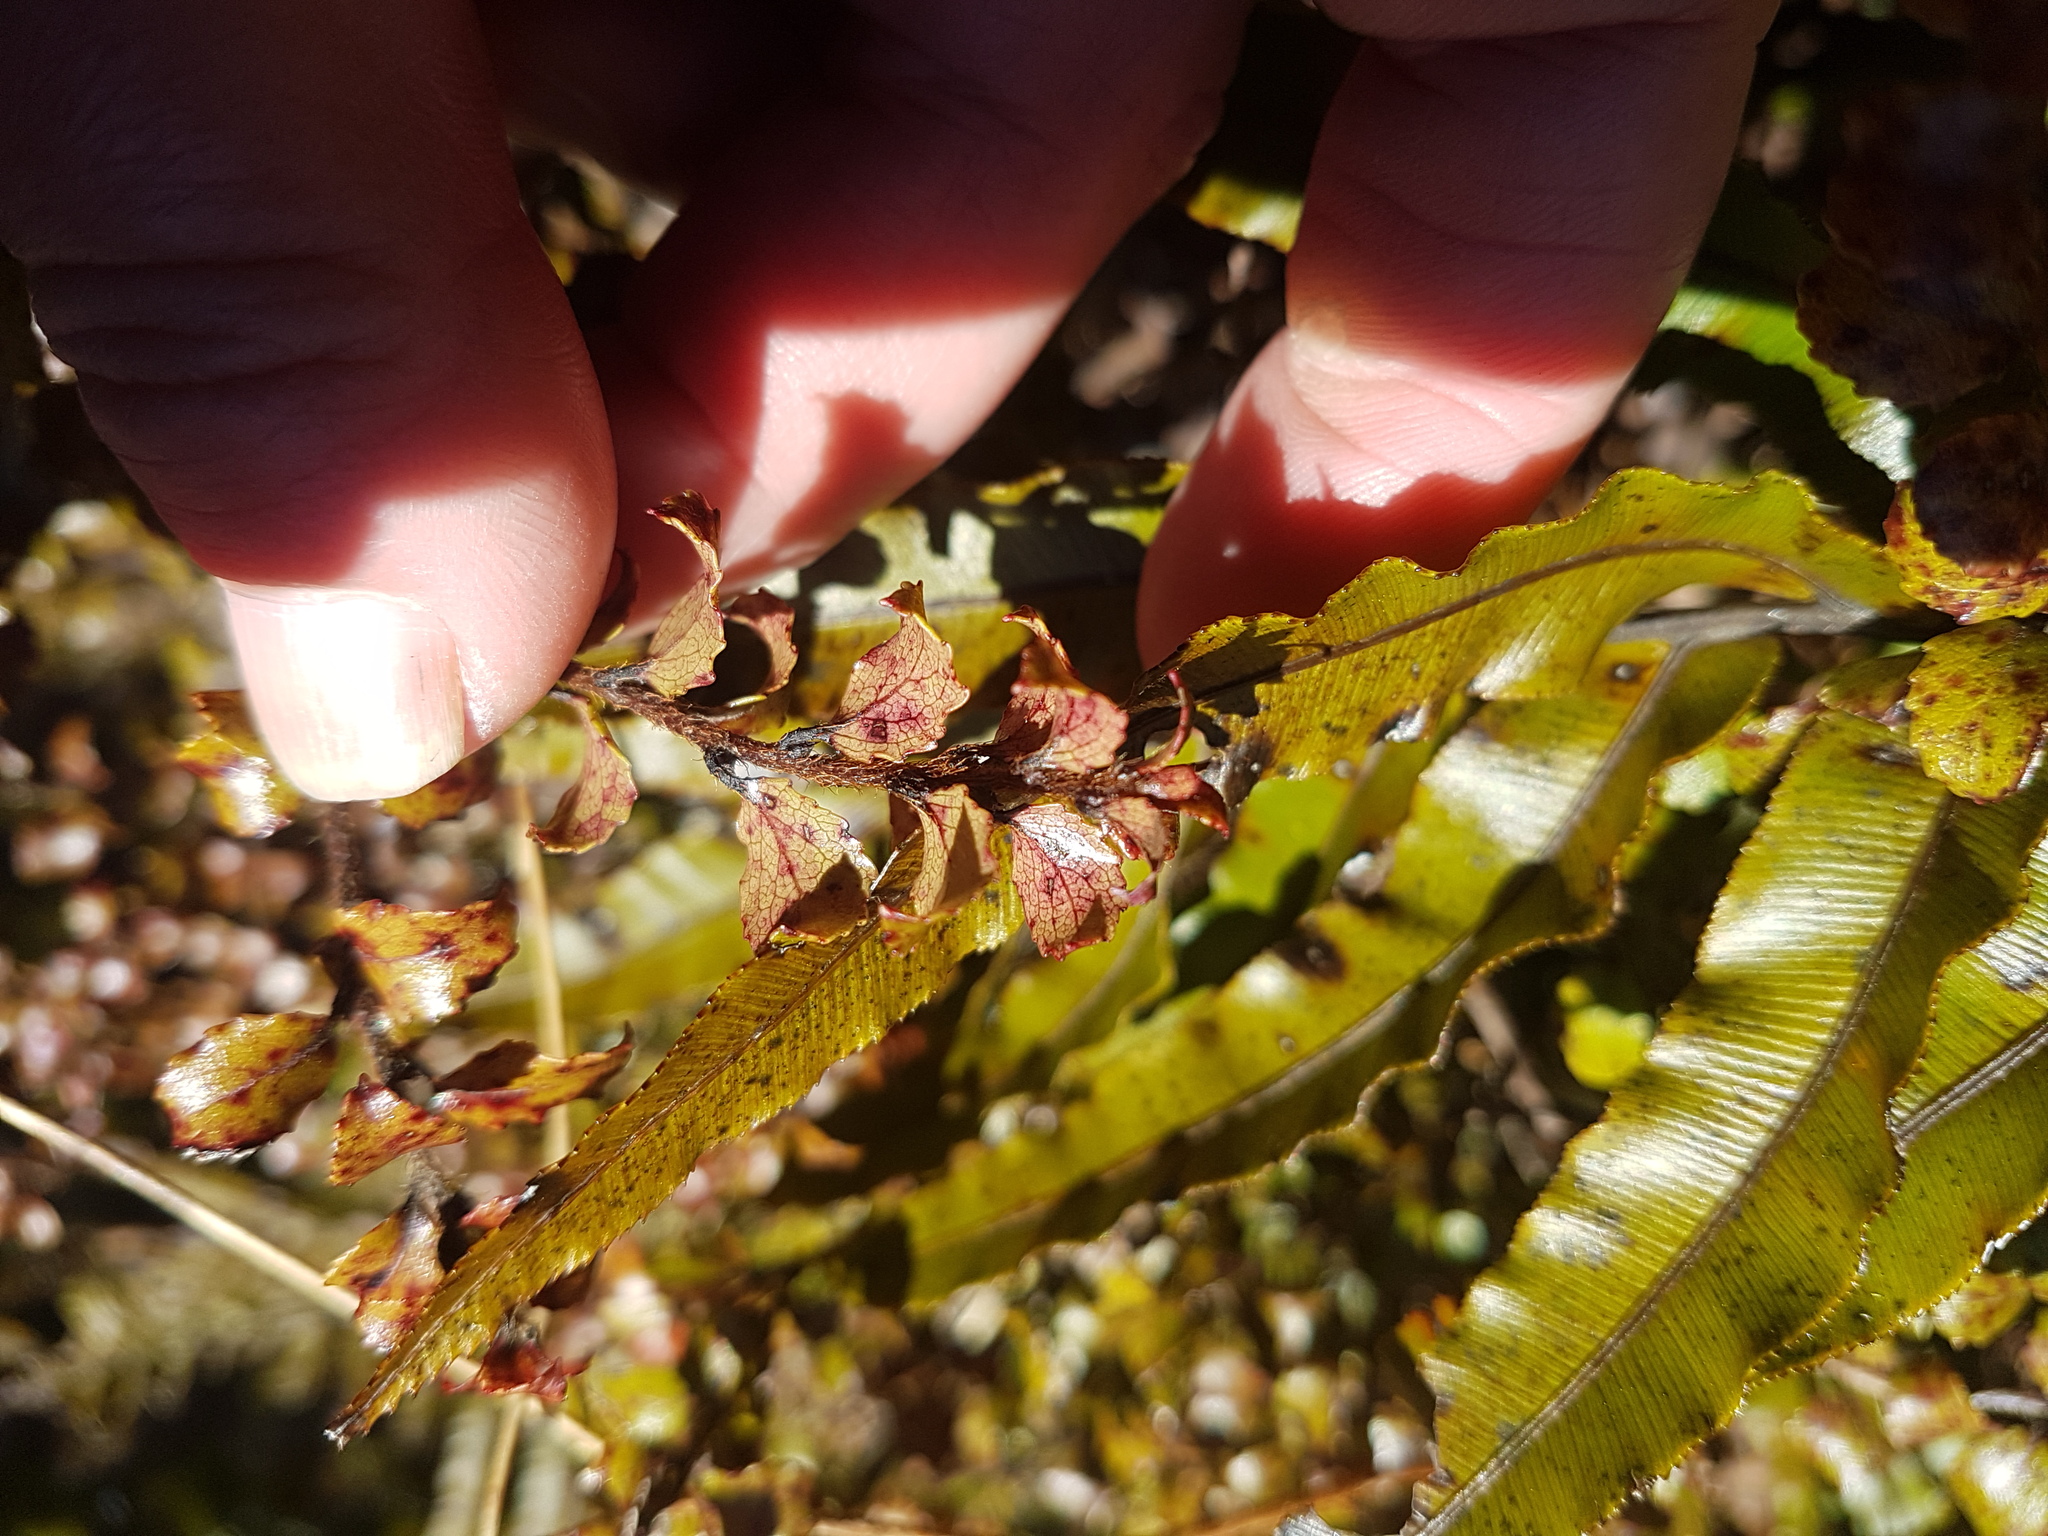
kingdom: Plantae
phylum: Tracheophyta
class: Magnoliopsida
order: Ericales
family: Ericaceae
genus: Gaultheria
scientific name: Gaultheria antipoda
